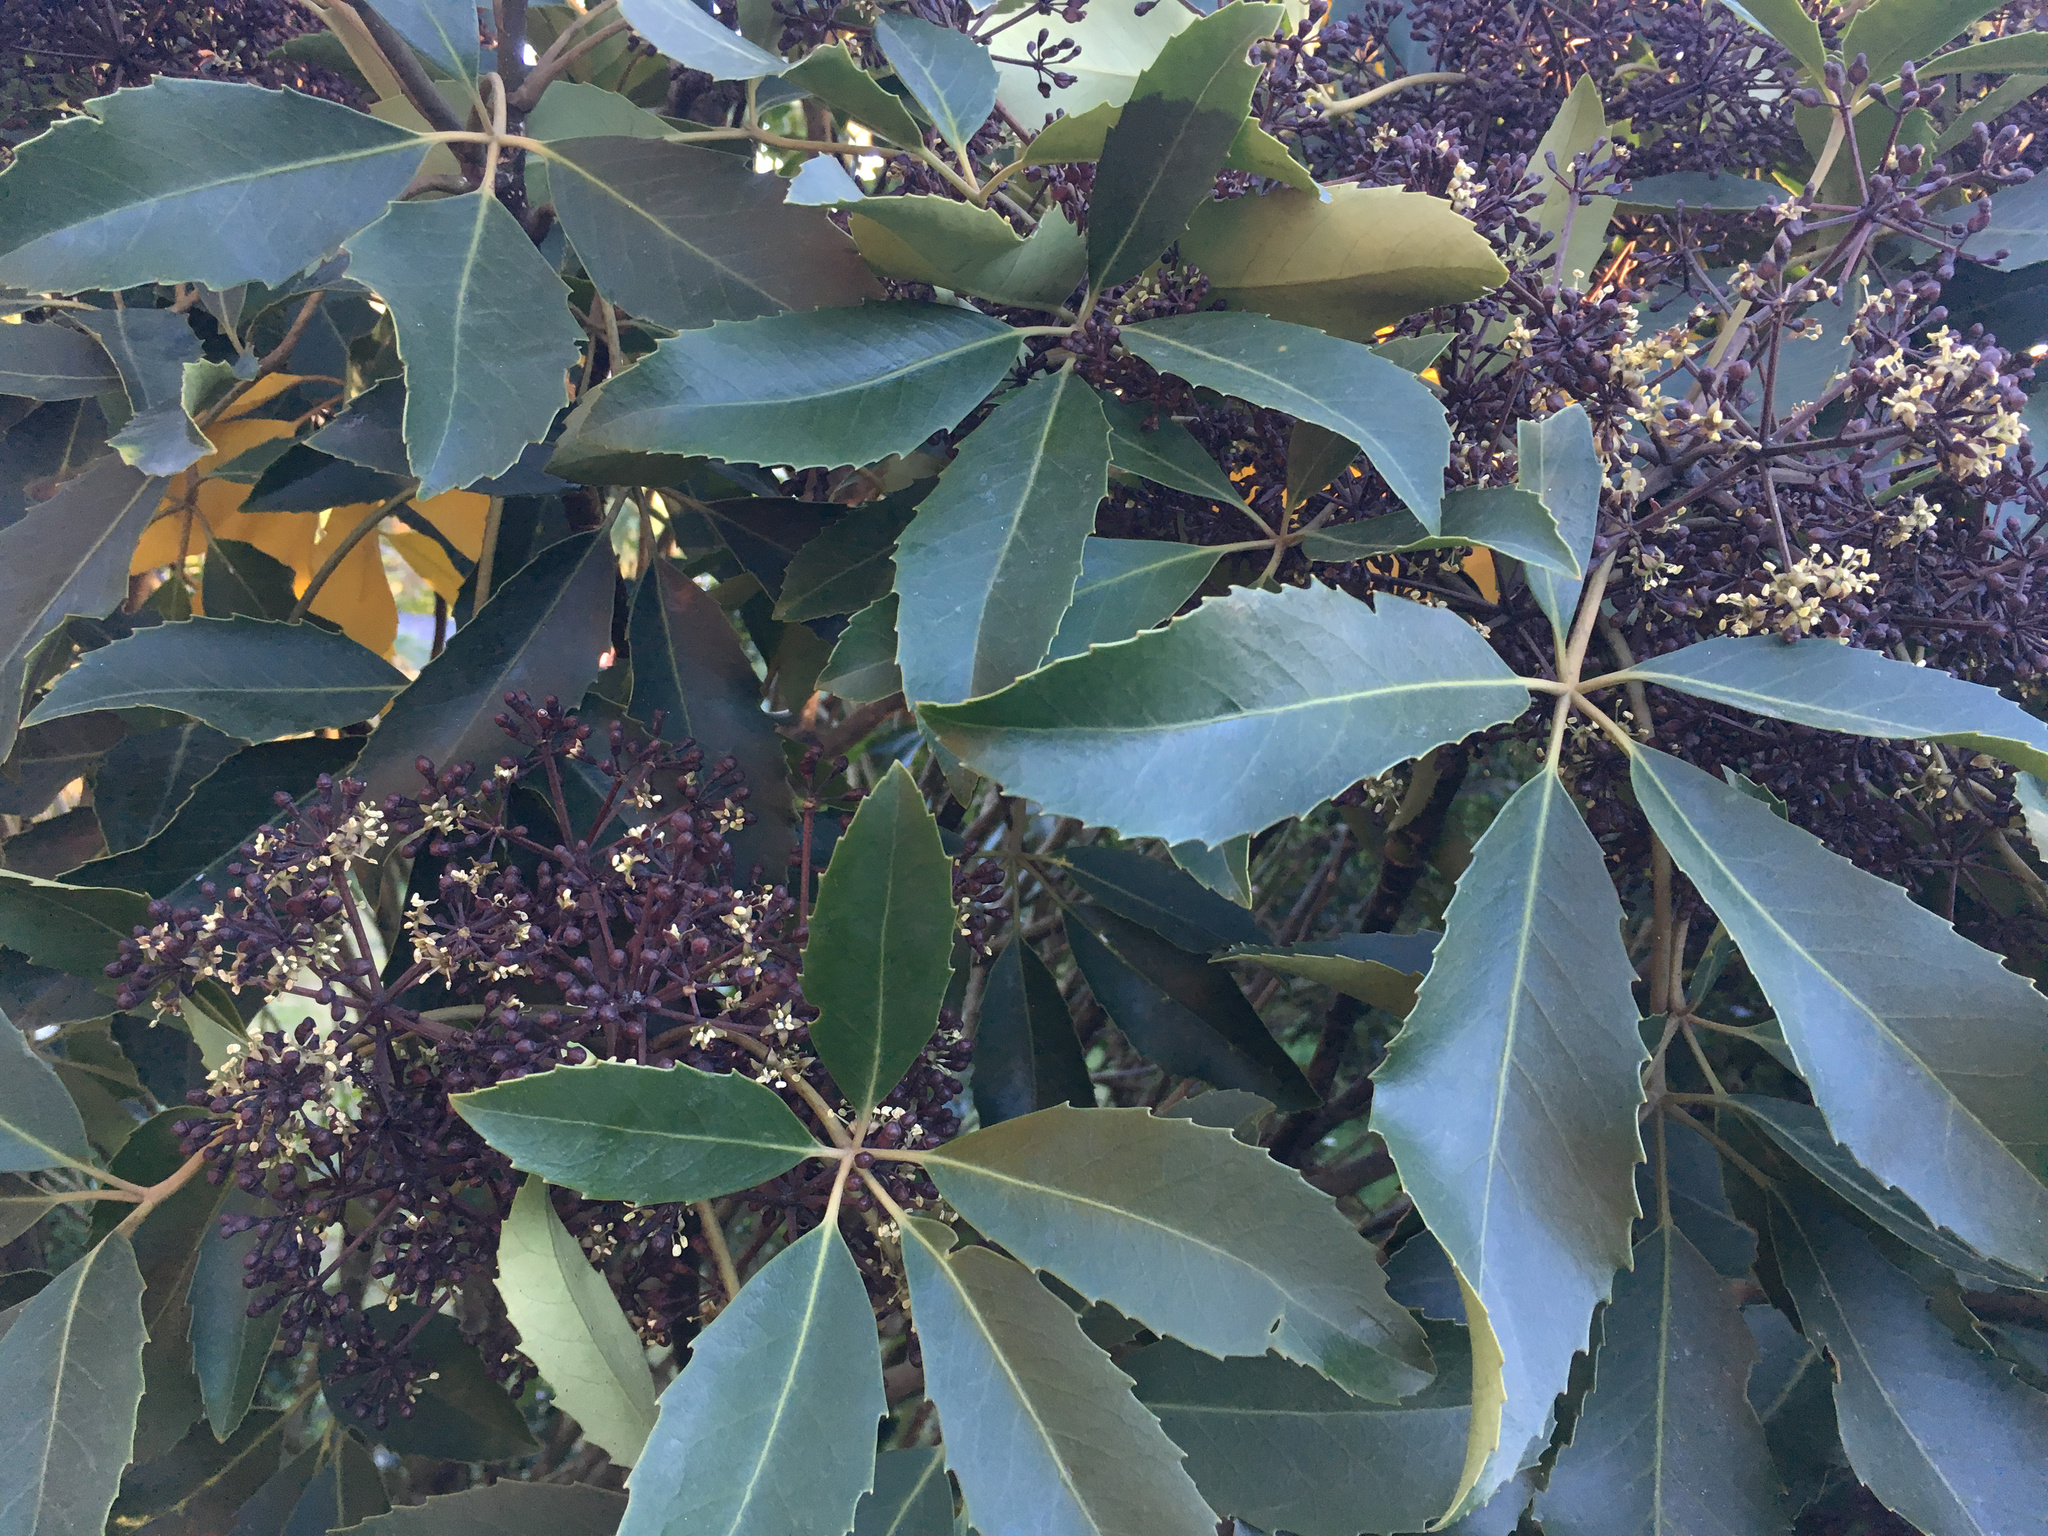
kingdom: Plantae
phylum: Tracheophyta
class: Magnoliopsida
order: Apiales
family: Araliaceae
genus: Neopanax
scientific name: Neopanax arboreus
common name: Five-fingers
